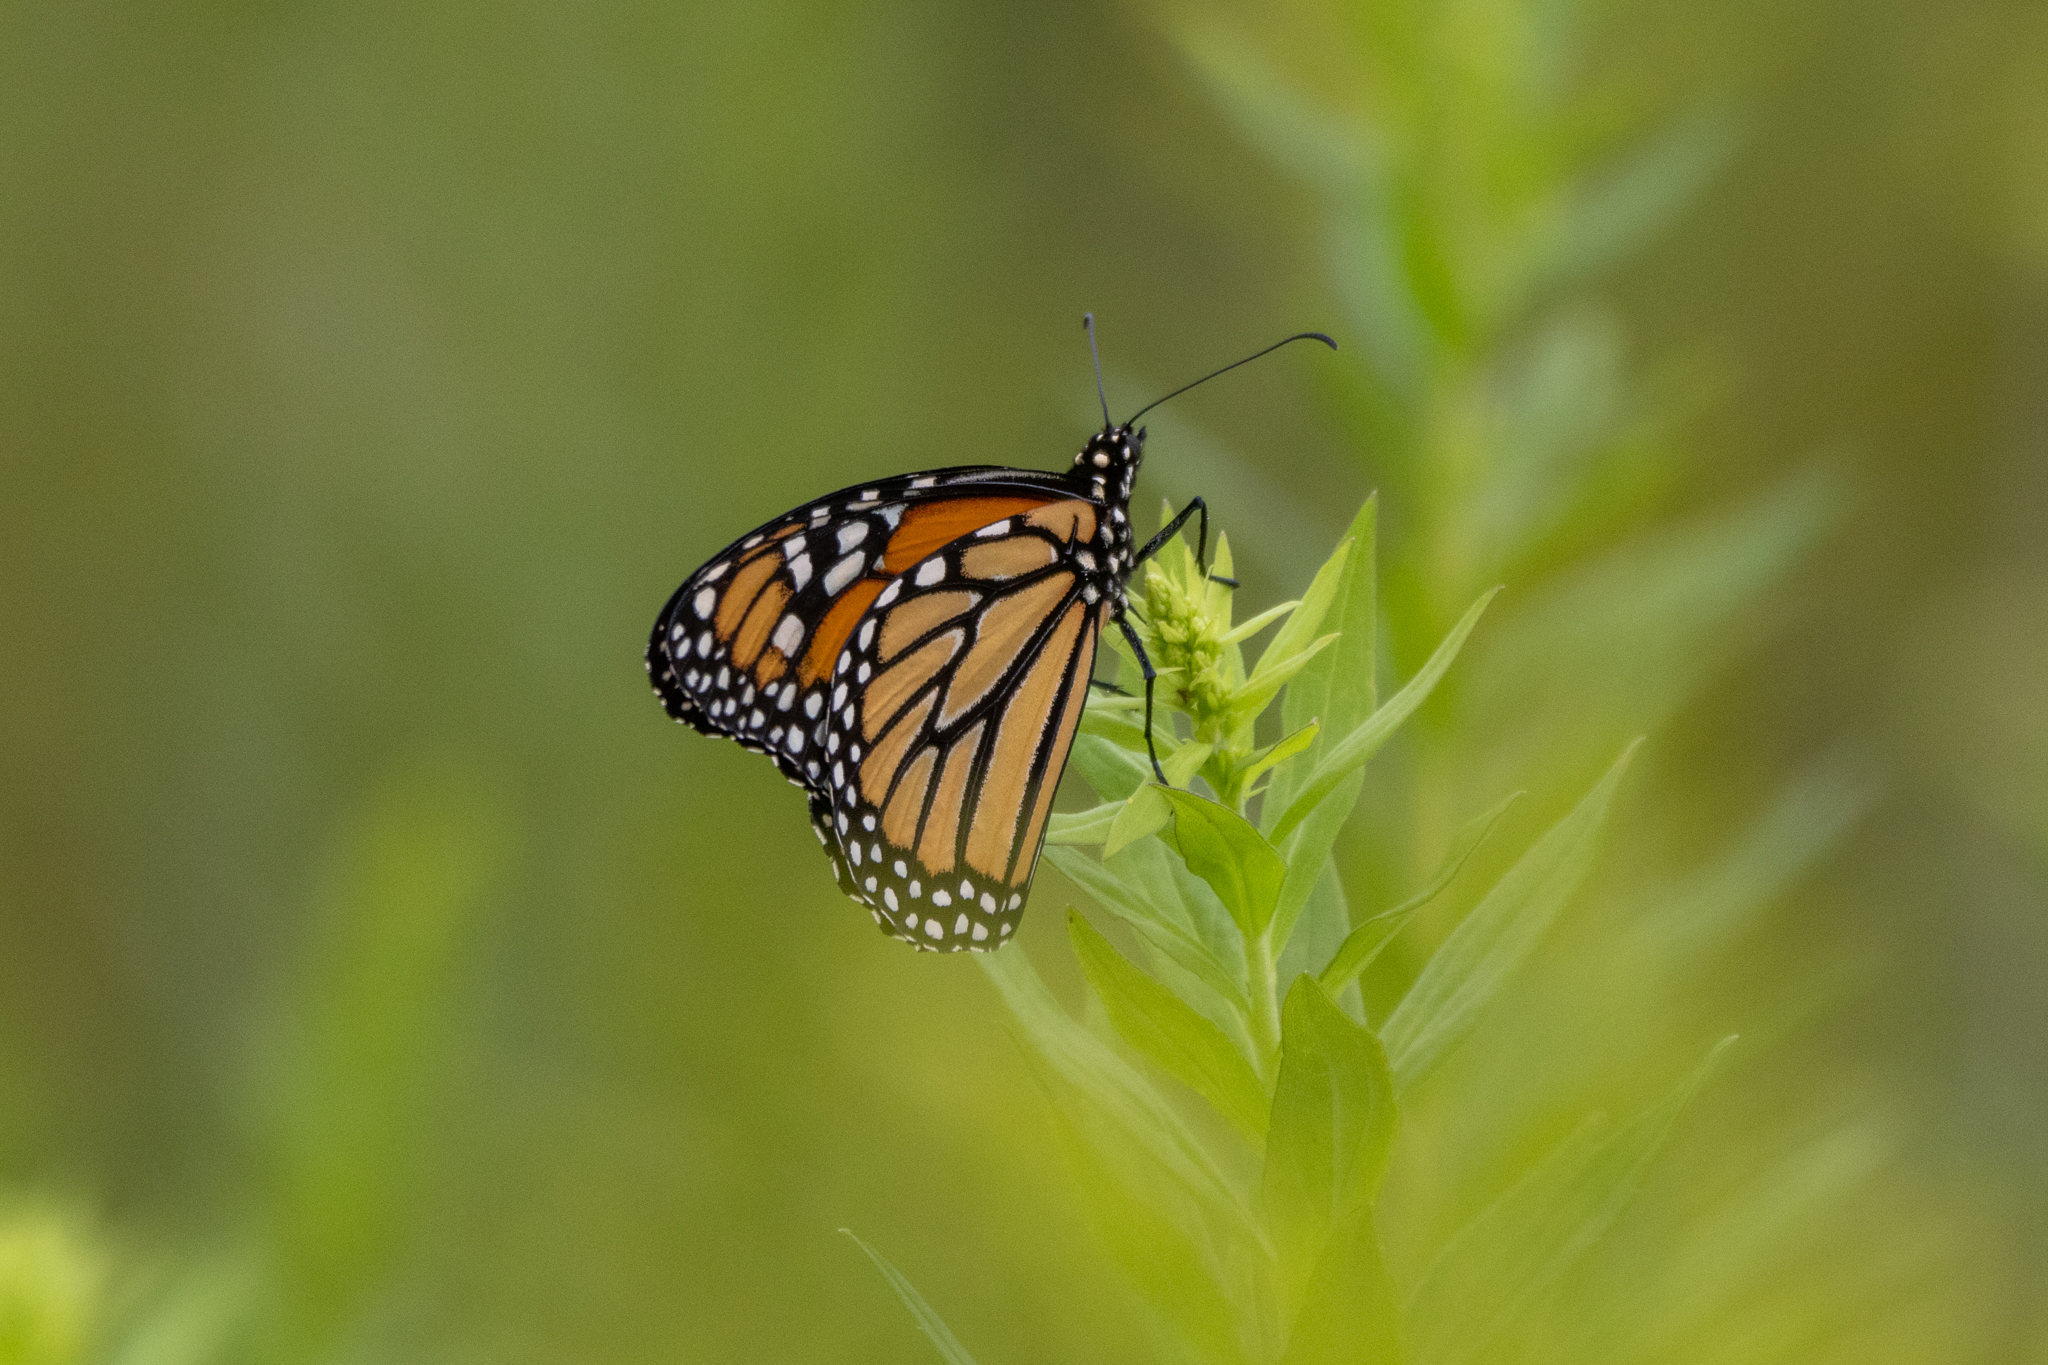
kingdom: Animalia
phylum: Arthropoda
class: Insecta
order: Lepidoptera
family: Nymphalidae
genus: Danaus
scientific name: Danaus plexippus
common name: Monarch
